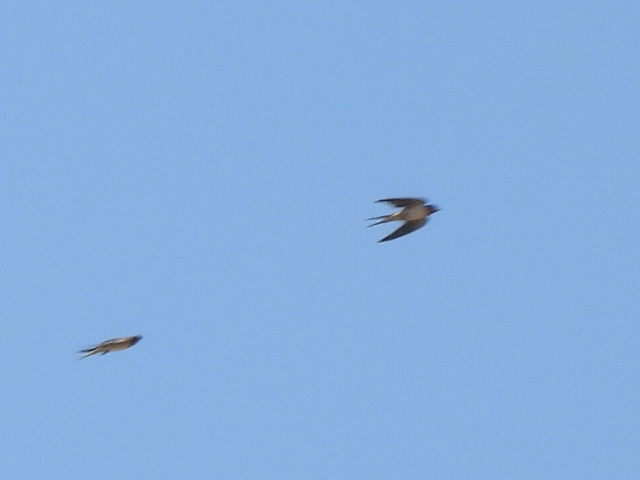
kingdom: Animalia
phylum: Chordata
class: Aves
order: Passeriformes
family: Hirundinidae
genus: Hirundo
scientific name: Hirundo rustica
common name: Barn swallow
